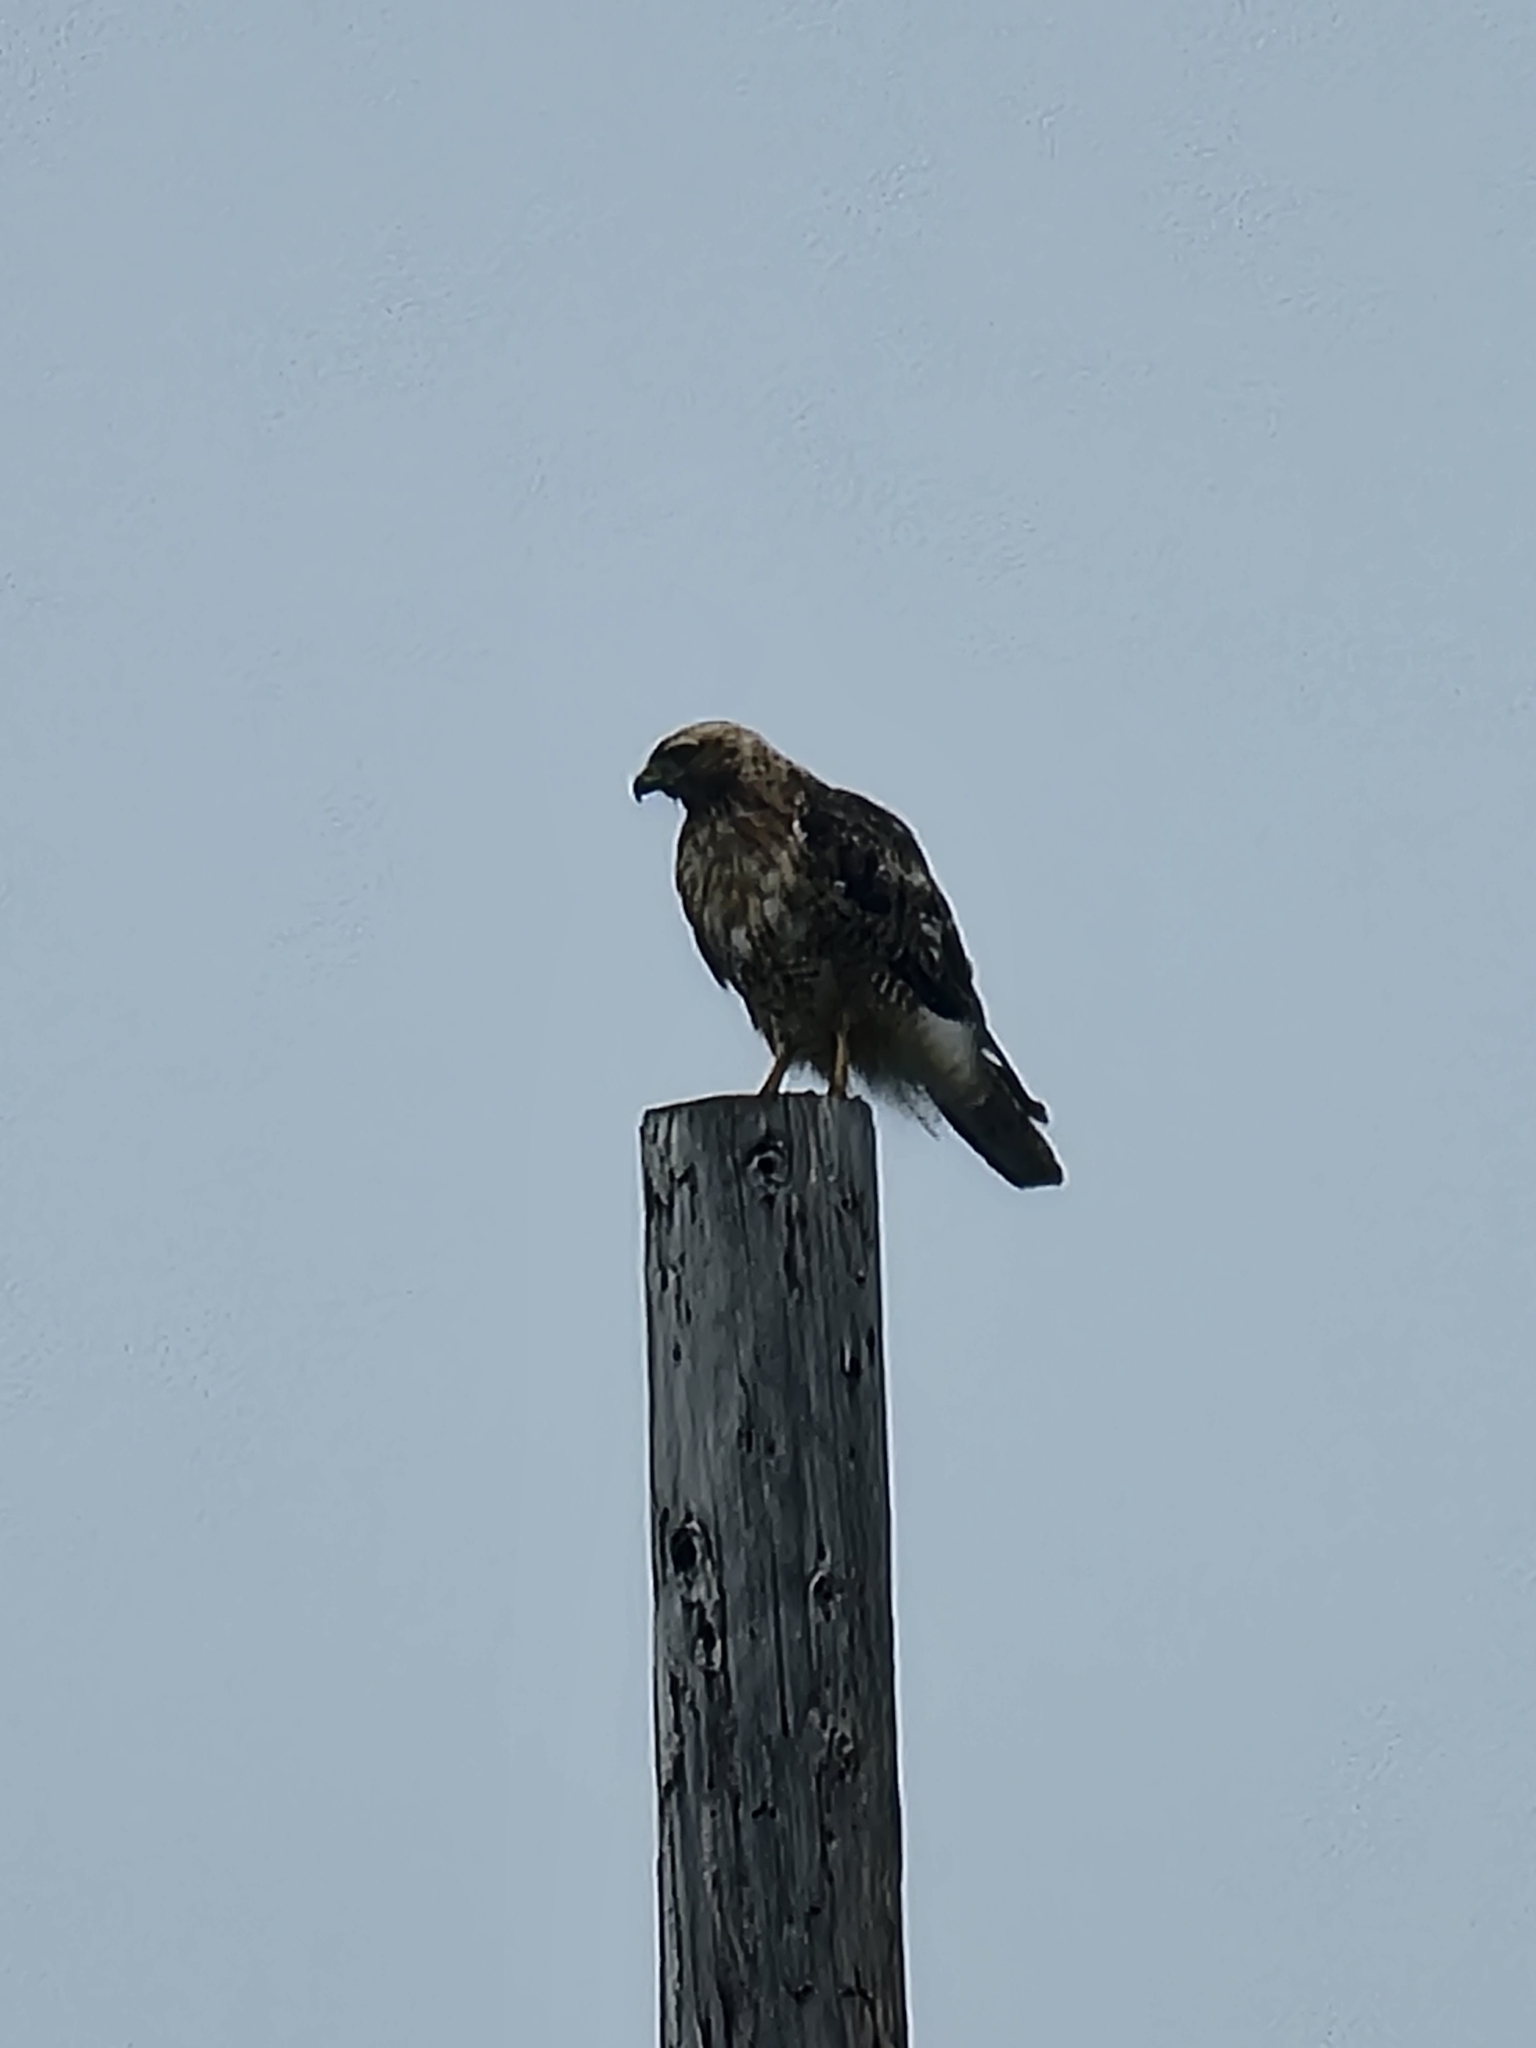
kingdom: Animalia
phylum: Chordata
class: Aves
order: Accipitriformes
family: Accipitridae
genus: Buteo
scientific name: Buteo jamaicensis
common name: Red-tailed hawk
